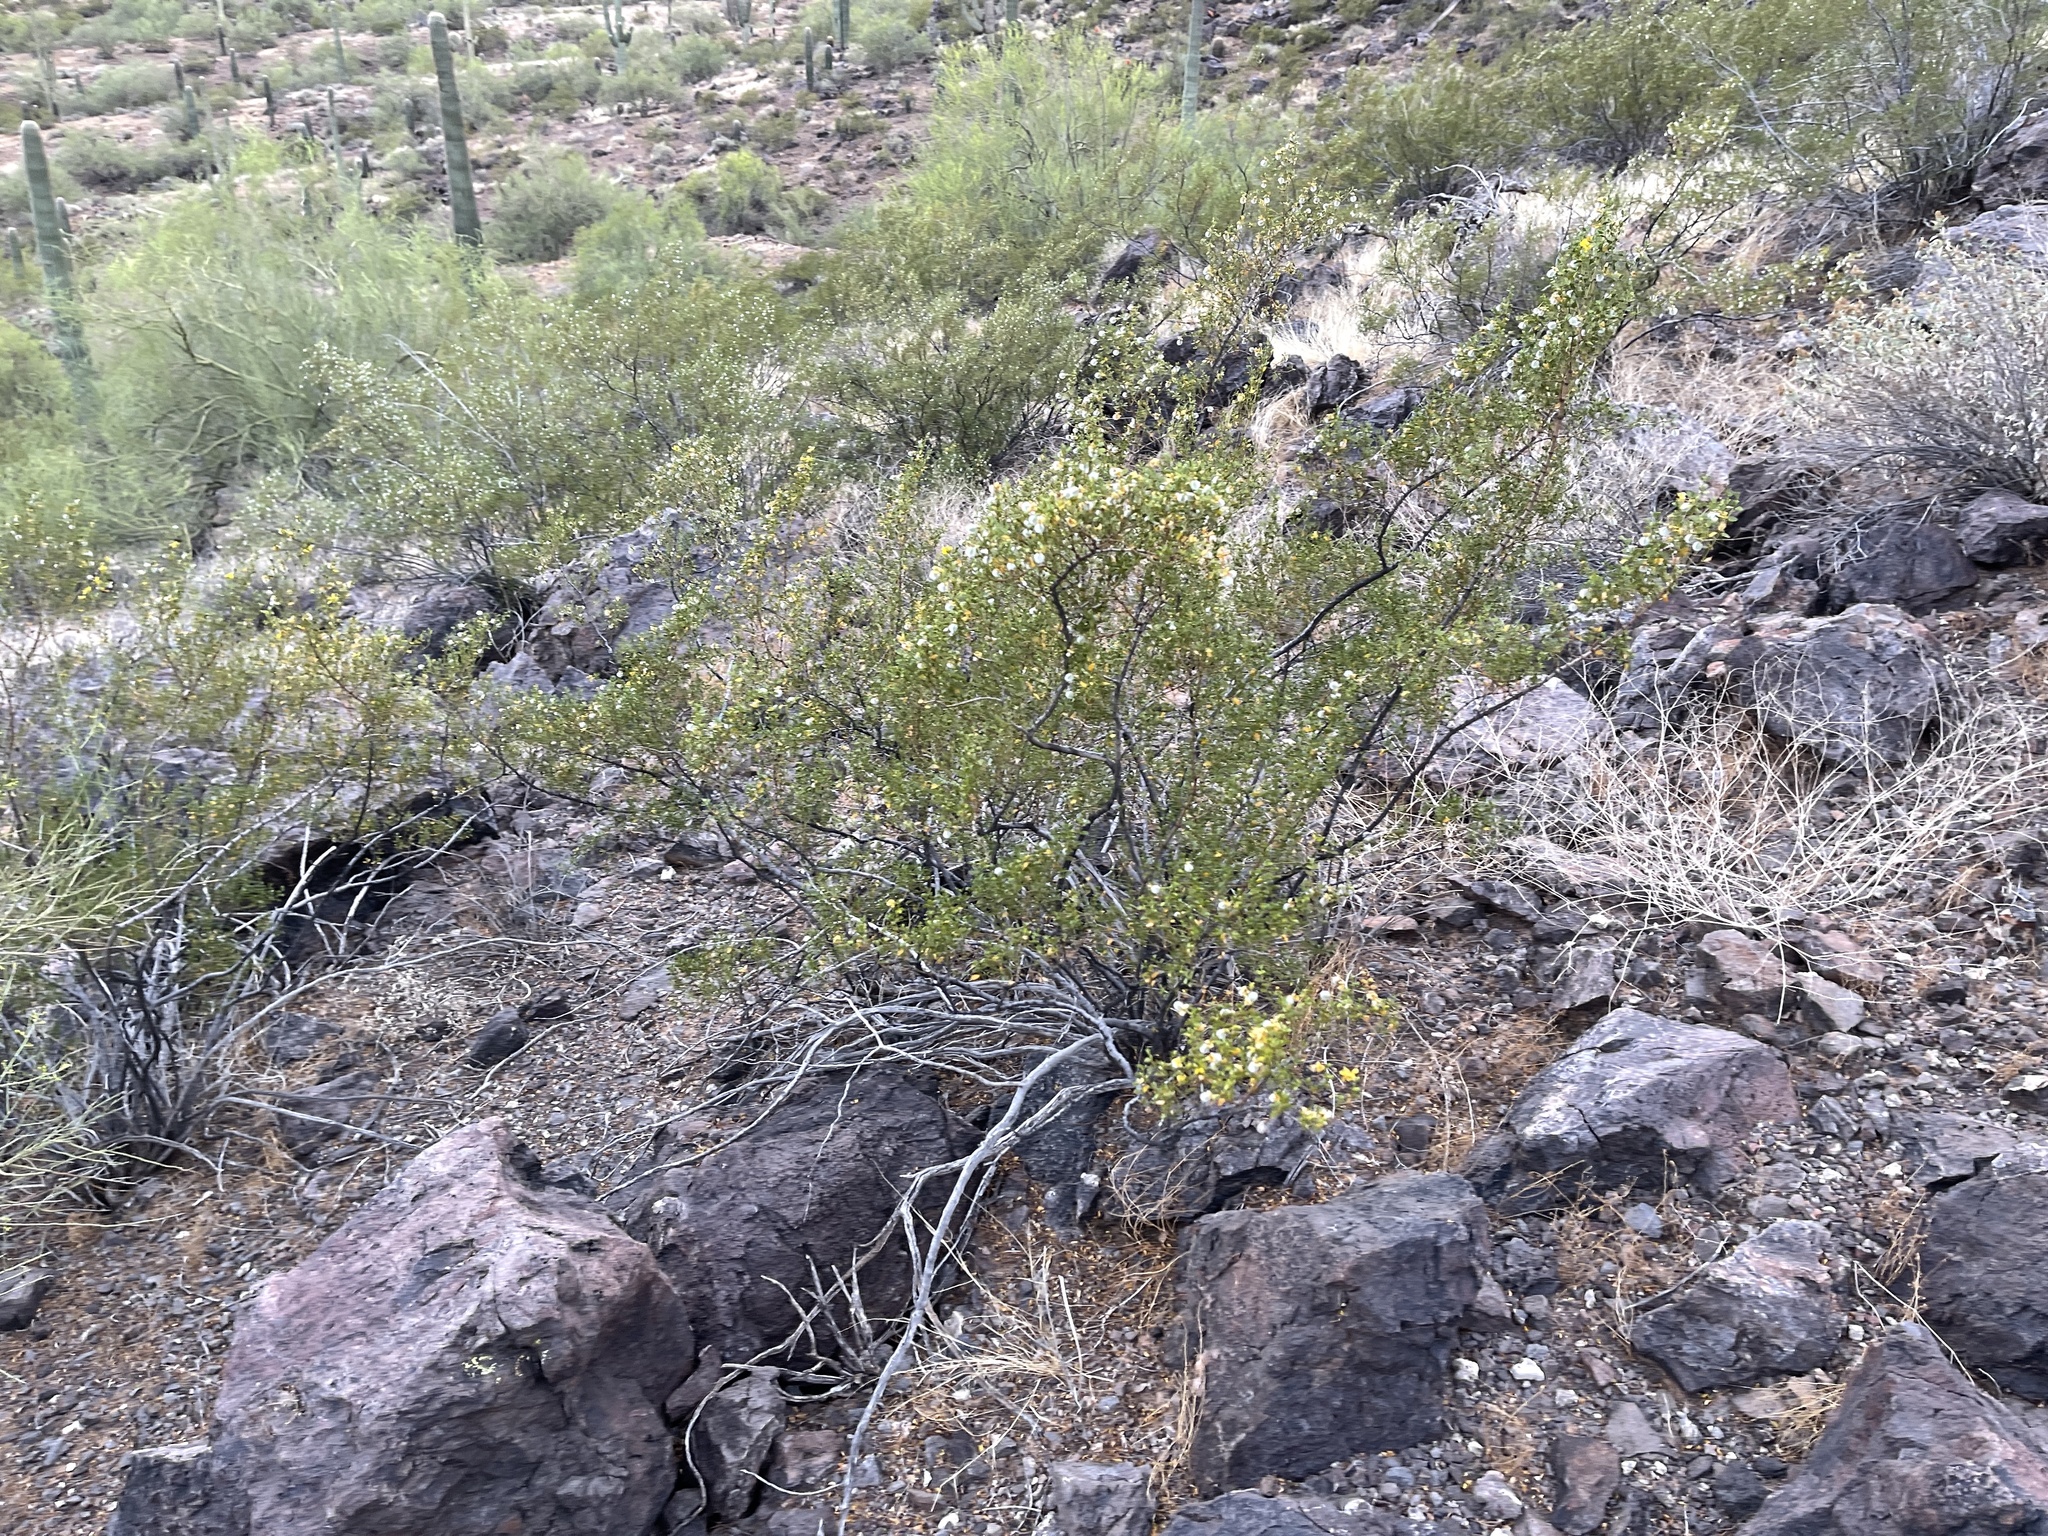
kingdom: Plantae
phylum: Tracheophyta
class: Magnoliopsida
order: Zygophyllales
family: Zygophyllaceae
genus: Larrea
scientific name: Larrea tridentata
